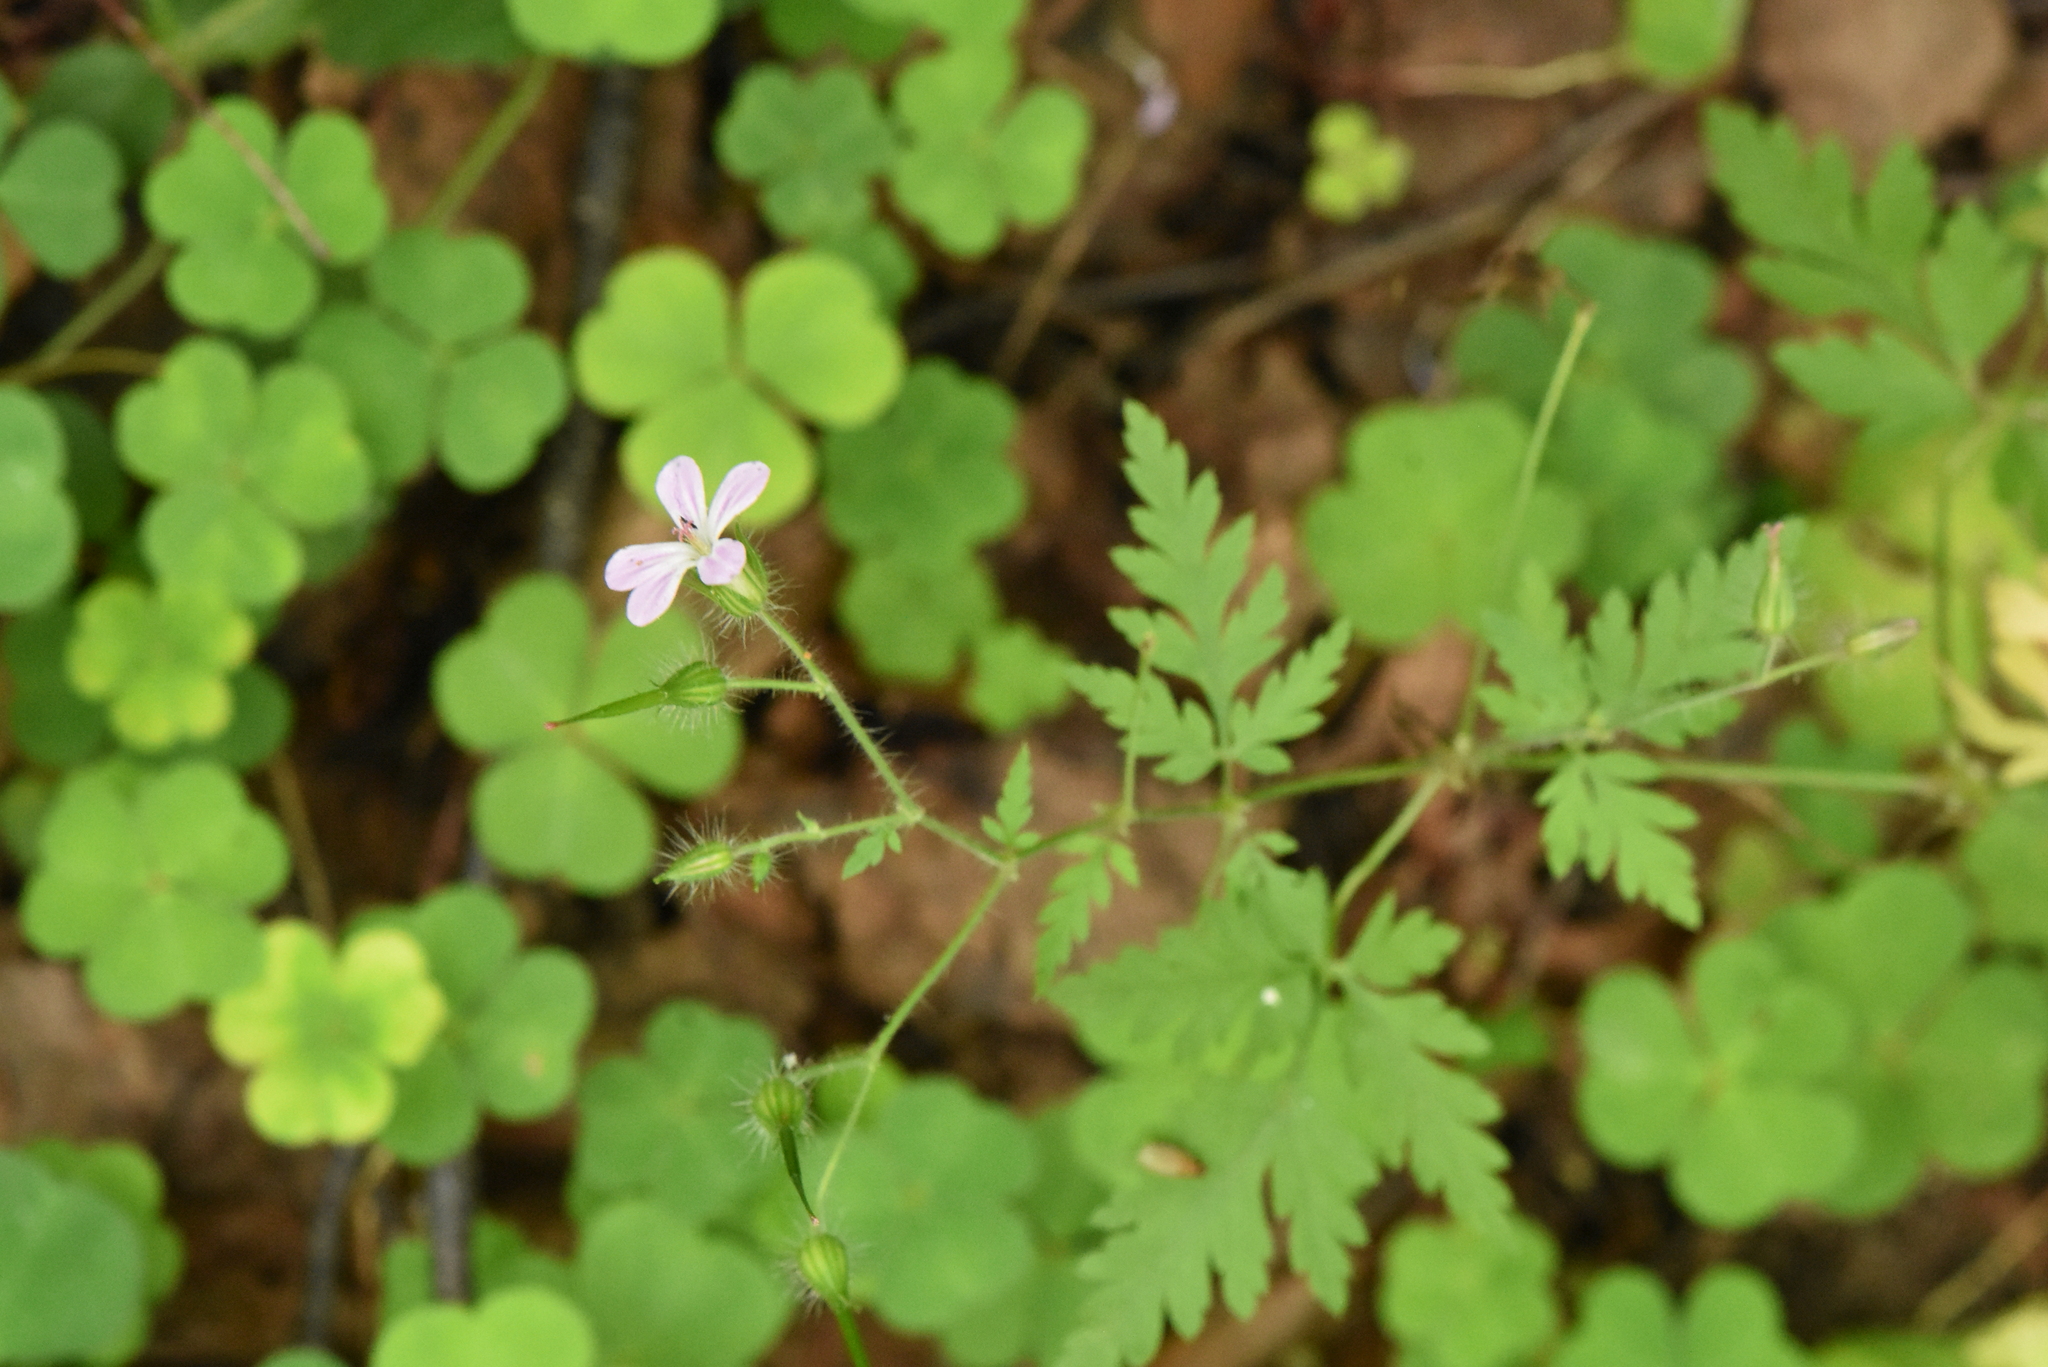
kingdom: Plantae
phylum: Tracheophyta
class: Magnoliopsida
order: Geraniales
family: Geraniaceae
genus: Geranium
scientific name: Geranium robertianum
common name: Herb-robert
